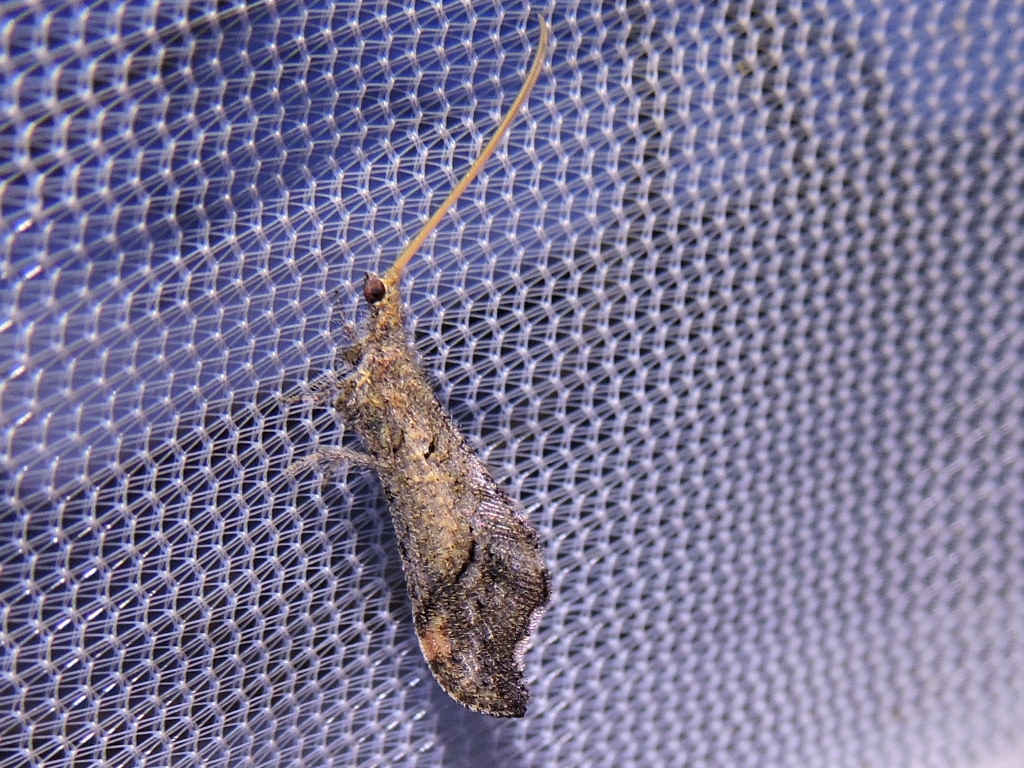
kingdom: Animalia
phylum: Arthropoda
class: Insecta
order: Neuroptera
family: Berothidae
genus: Lomamyia
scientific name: Lomamyia
